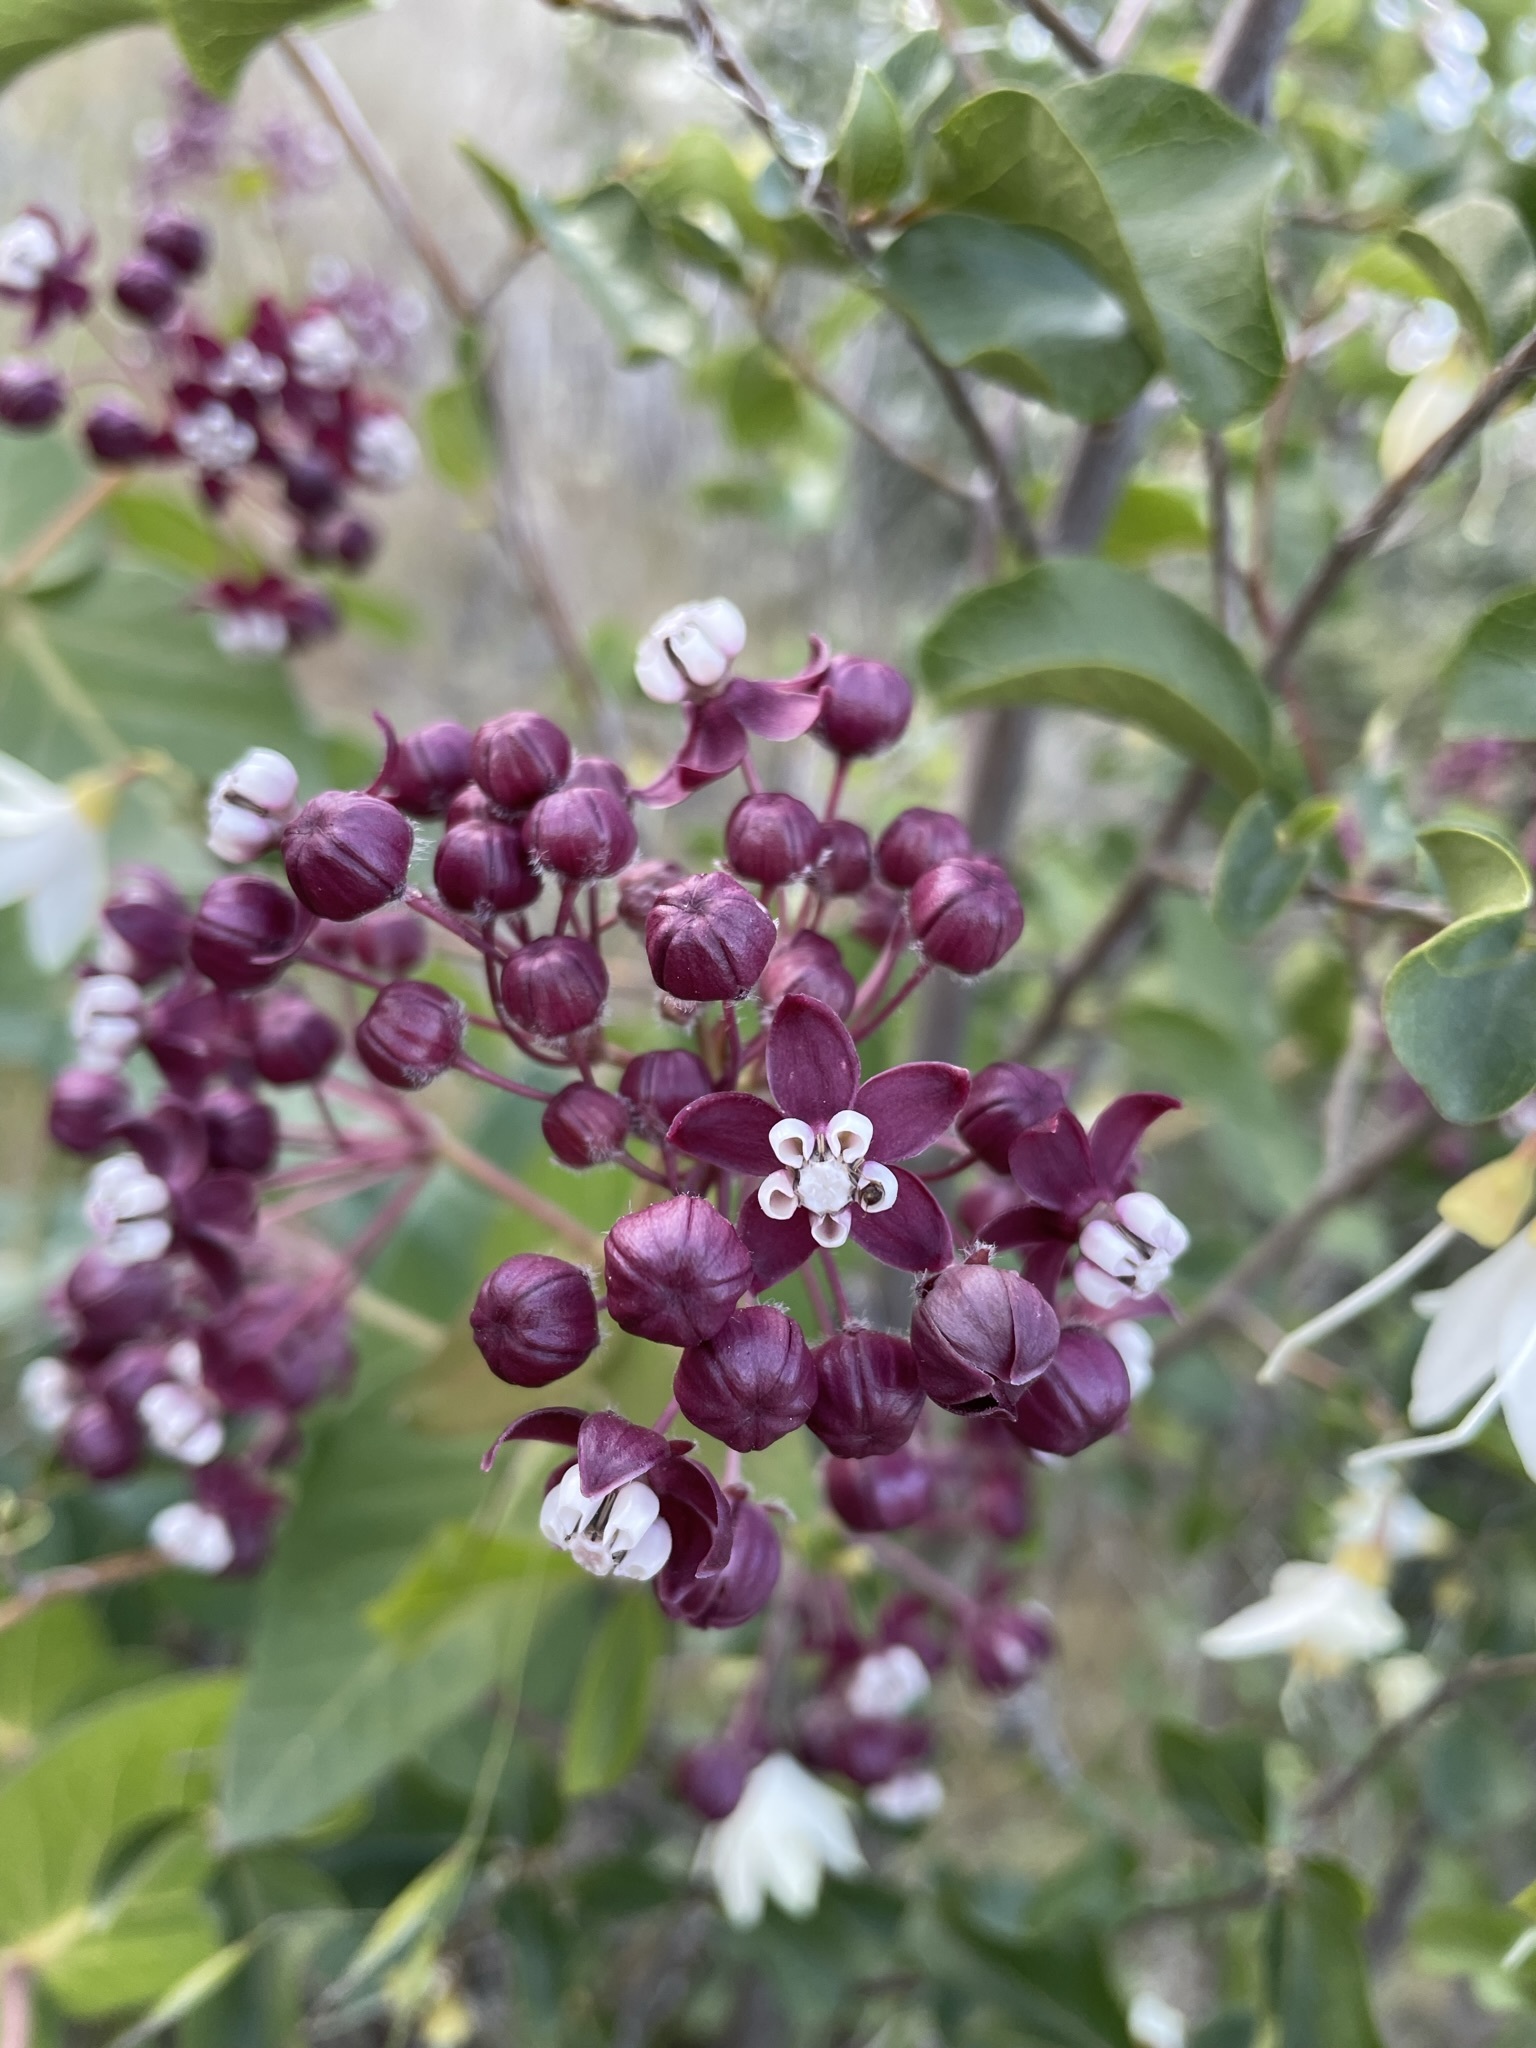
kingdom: Plantae
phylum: Tracheophyta
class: Magnoliopsida
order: Gentianales
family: Apocynaceae
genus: Asclepias
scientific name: Asclepias cordifolia
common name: Purple milkweed
